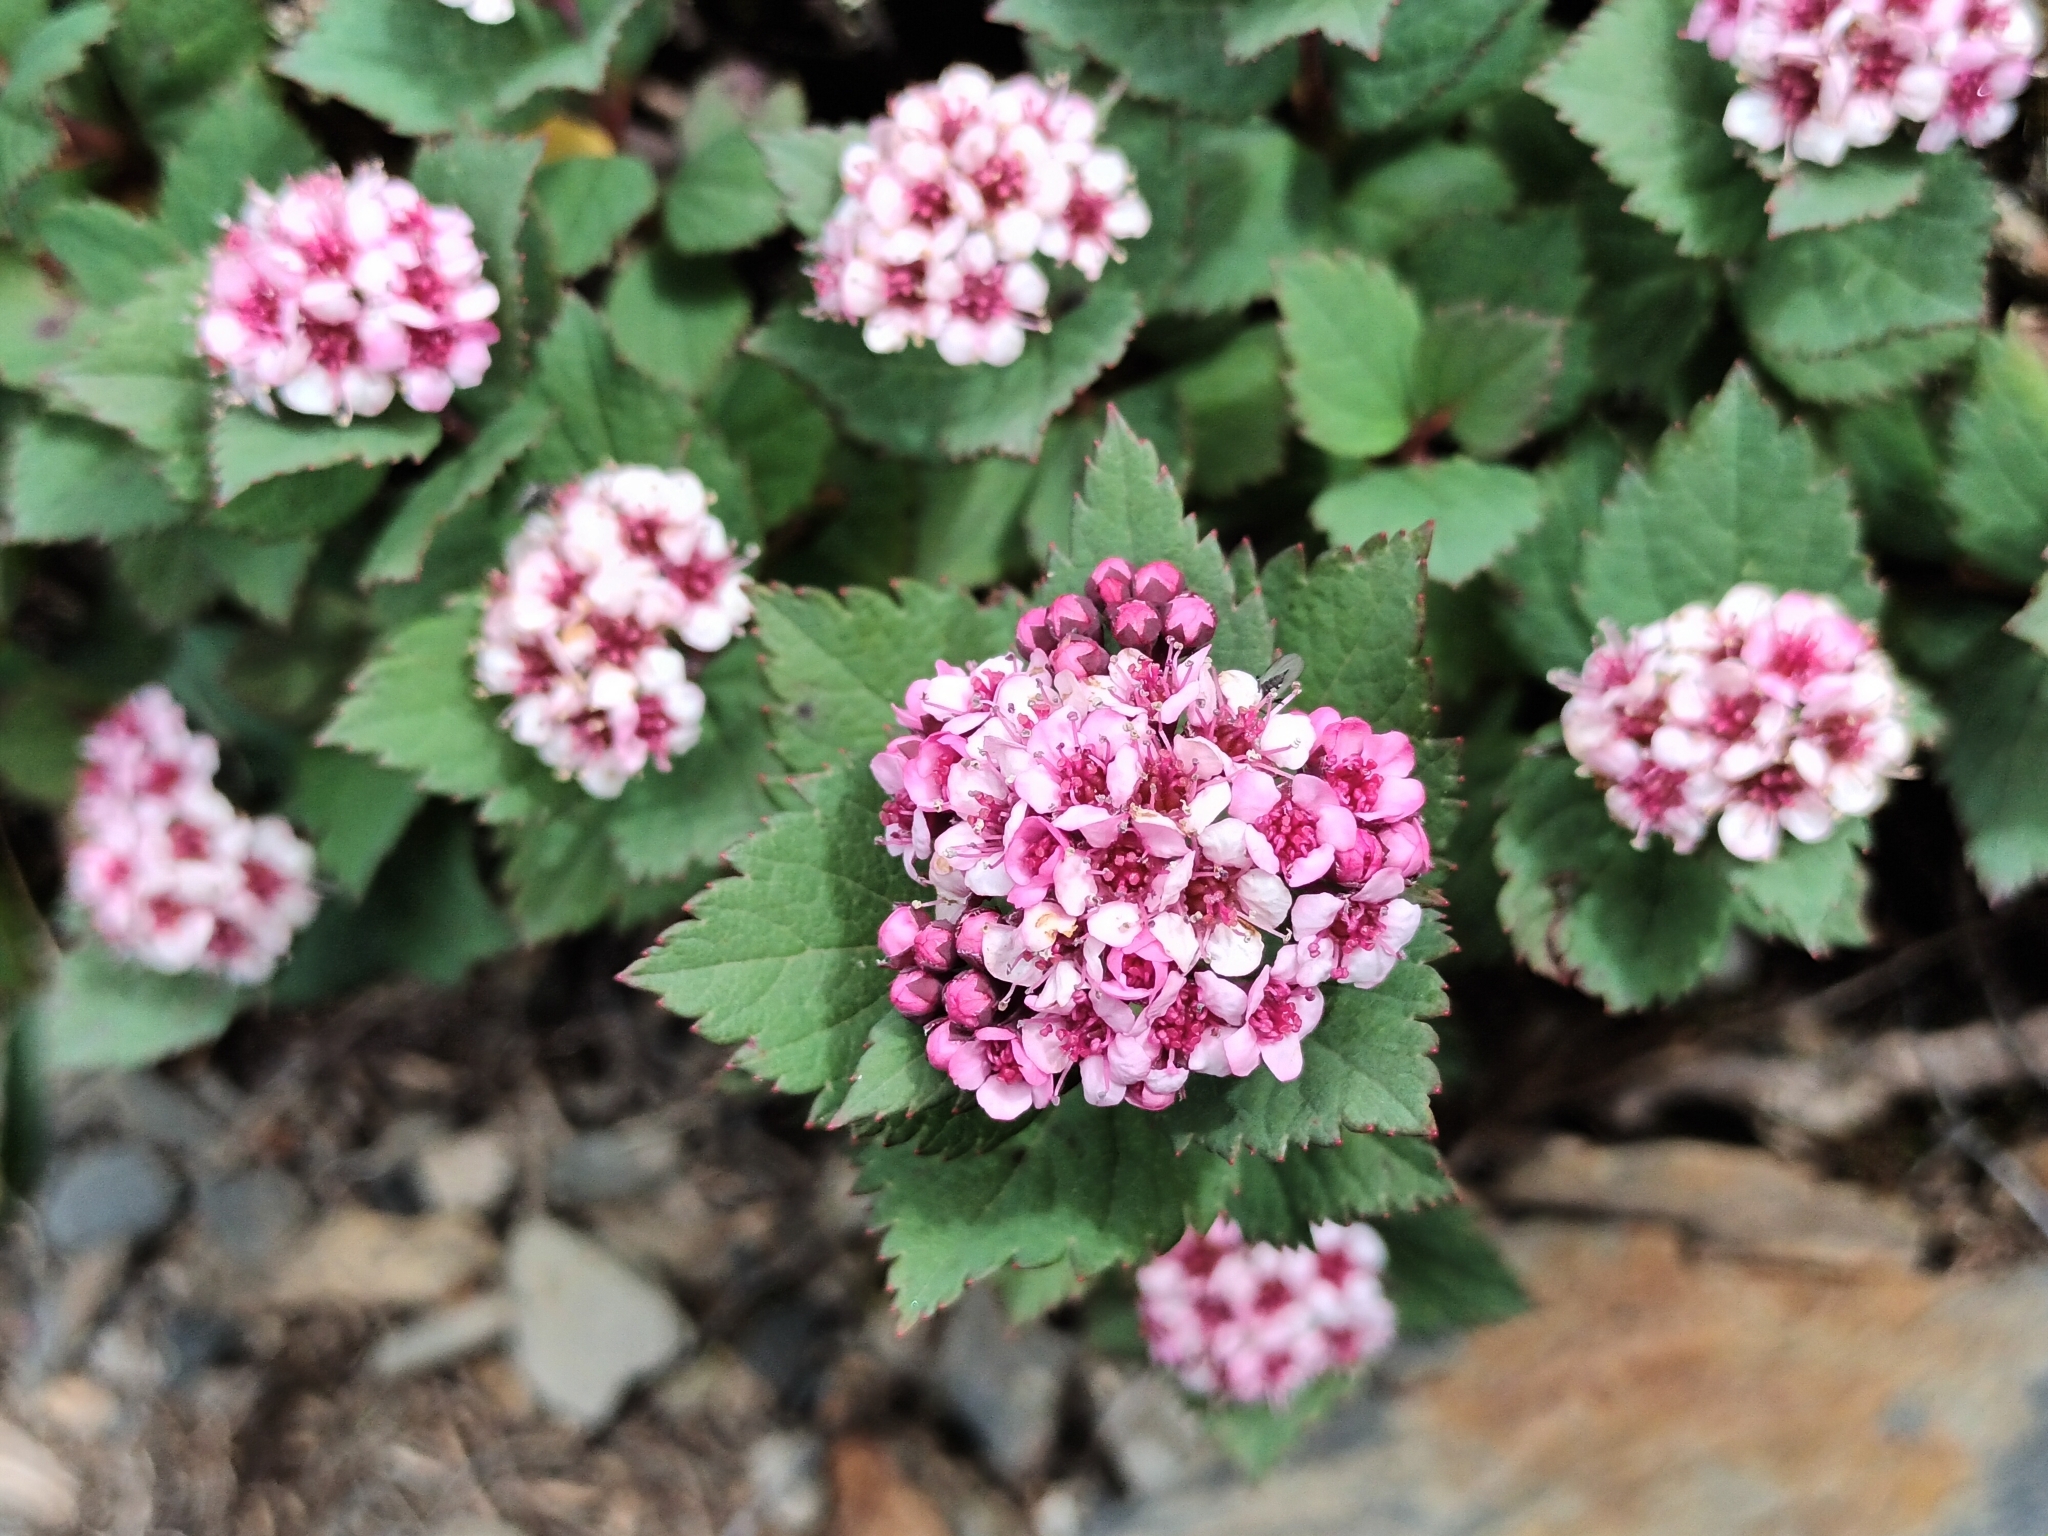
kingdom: Plantae
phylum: Tracheophyta
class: Magnoliopsida
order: Rosales
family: Rosaceae
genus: Spiraea
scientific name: Spiraea morrisonicola
